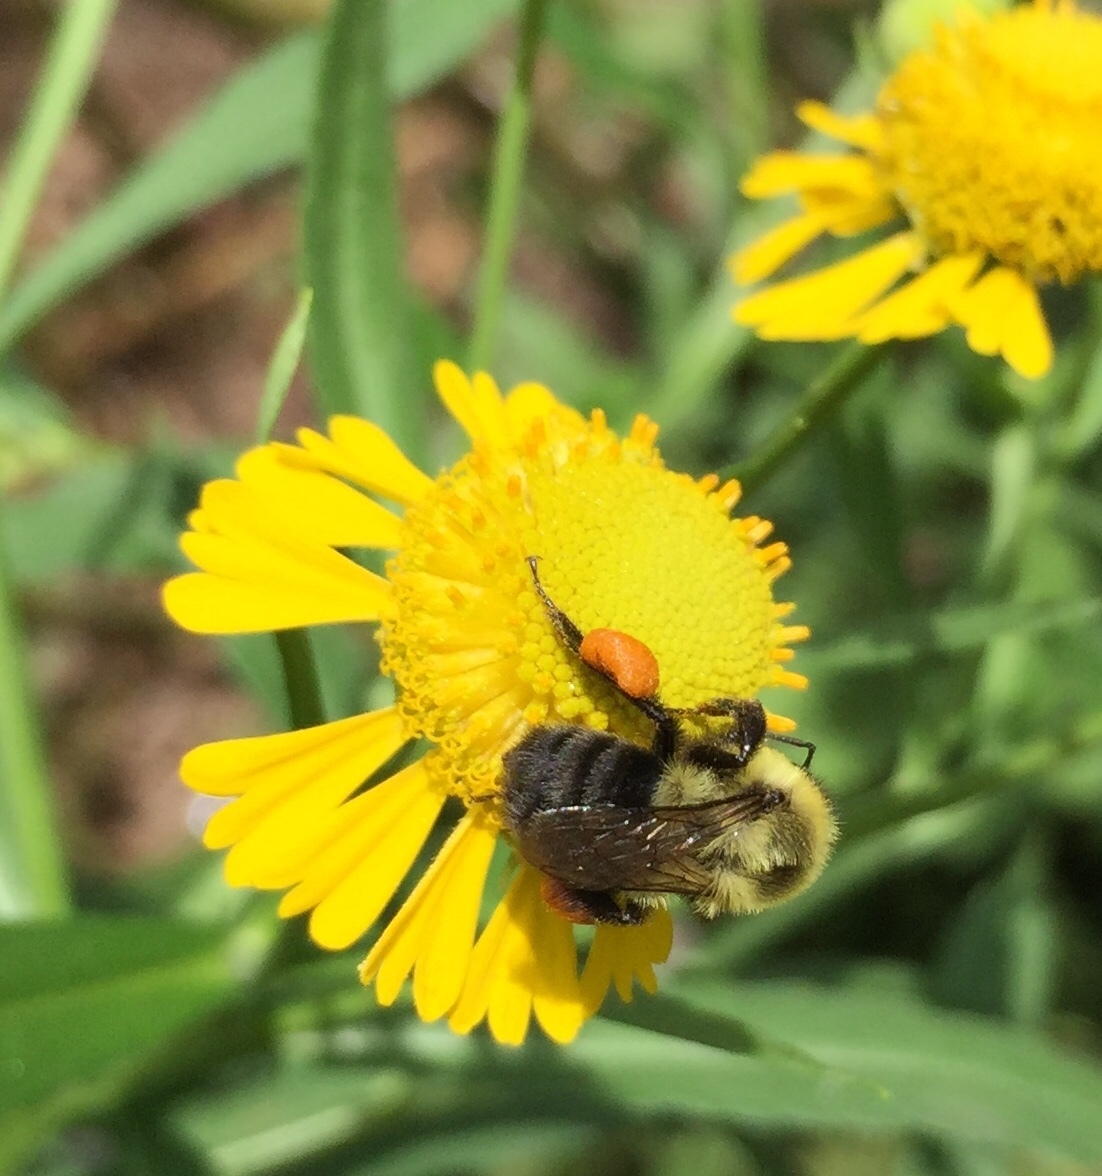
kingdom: Animalia
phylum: Arthropoda
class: Insecta
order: Hymenoptera
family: Apidae
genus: Bombus
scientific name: Bombus impatiens
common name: Common eastern bumble bee
